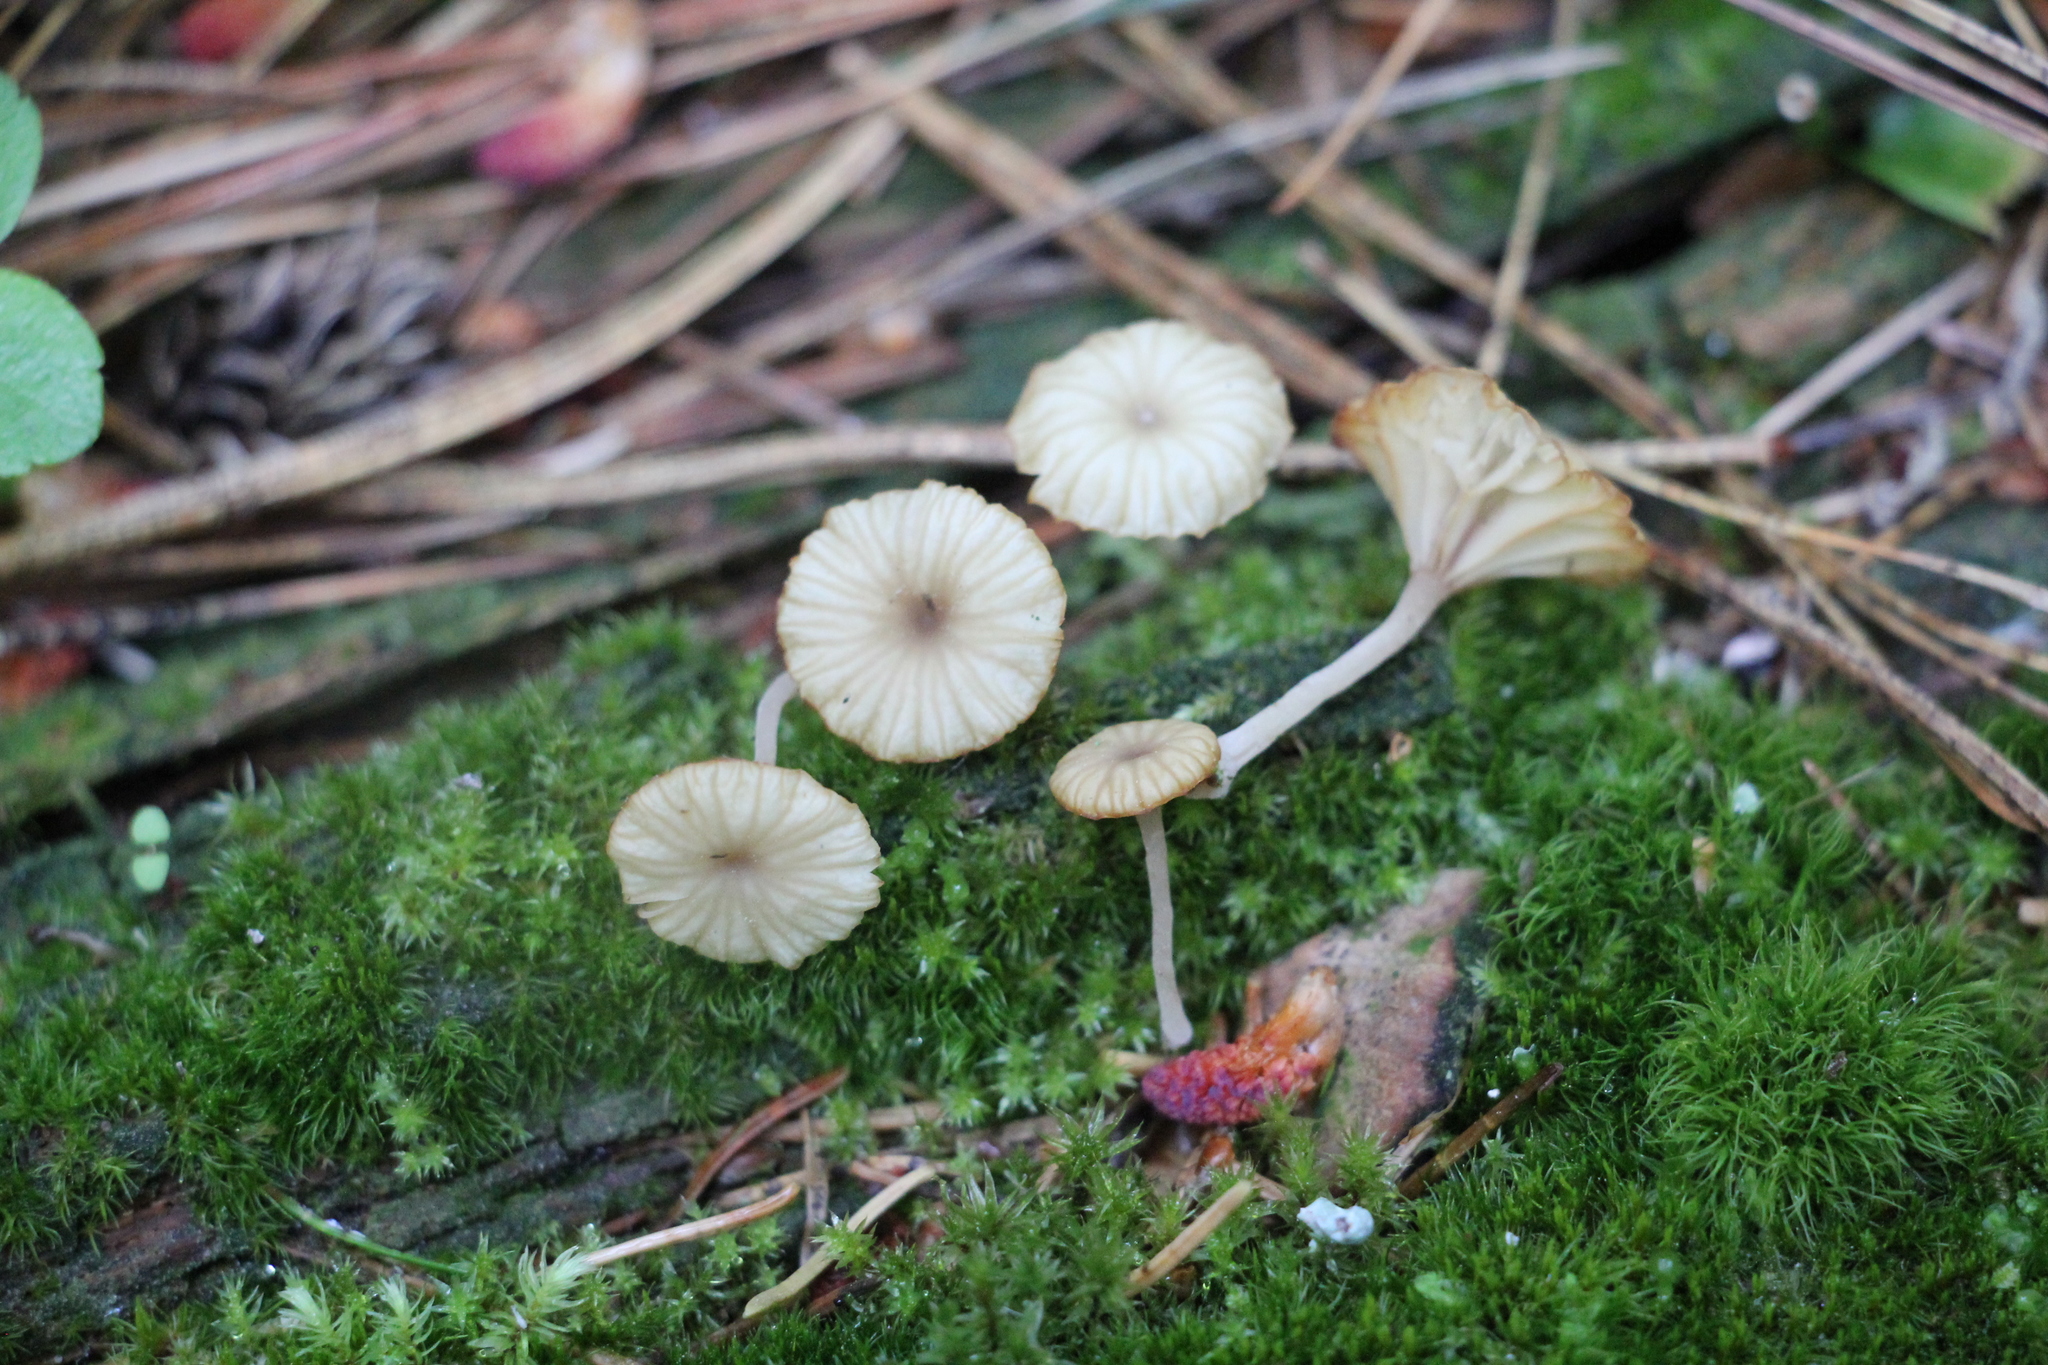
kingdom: Fungi
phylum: Basidiomycota
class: Agaricomycetes
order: Agaricales
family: Hygrophoraceae
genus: Lichenomphalia
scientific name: Lichenomphalia
